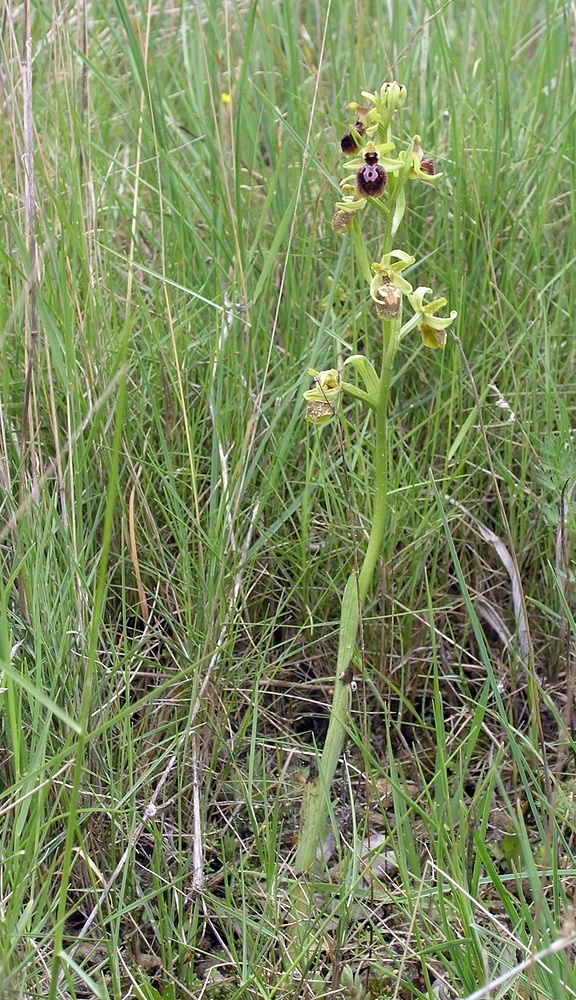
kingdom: Plantae
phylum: Tracheophyta
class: Liliopsida
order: Asparagales
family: Orchidaceae
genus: Ophrys
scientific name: Ophrys sphegodes
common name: Early spider-orchid
